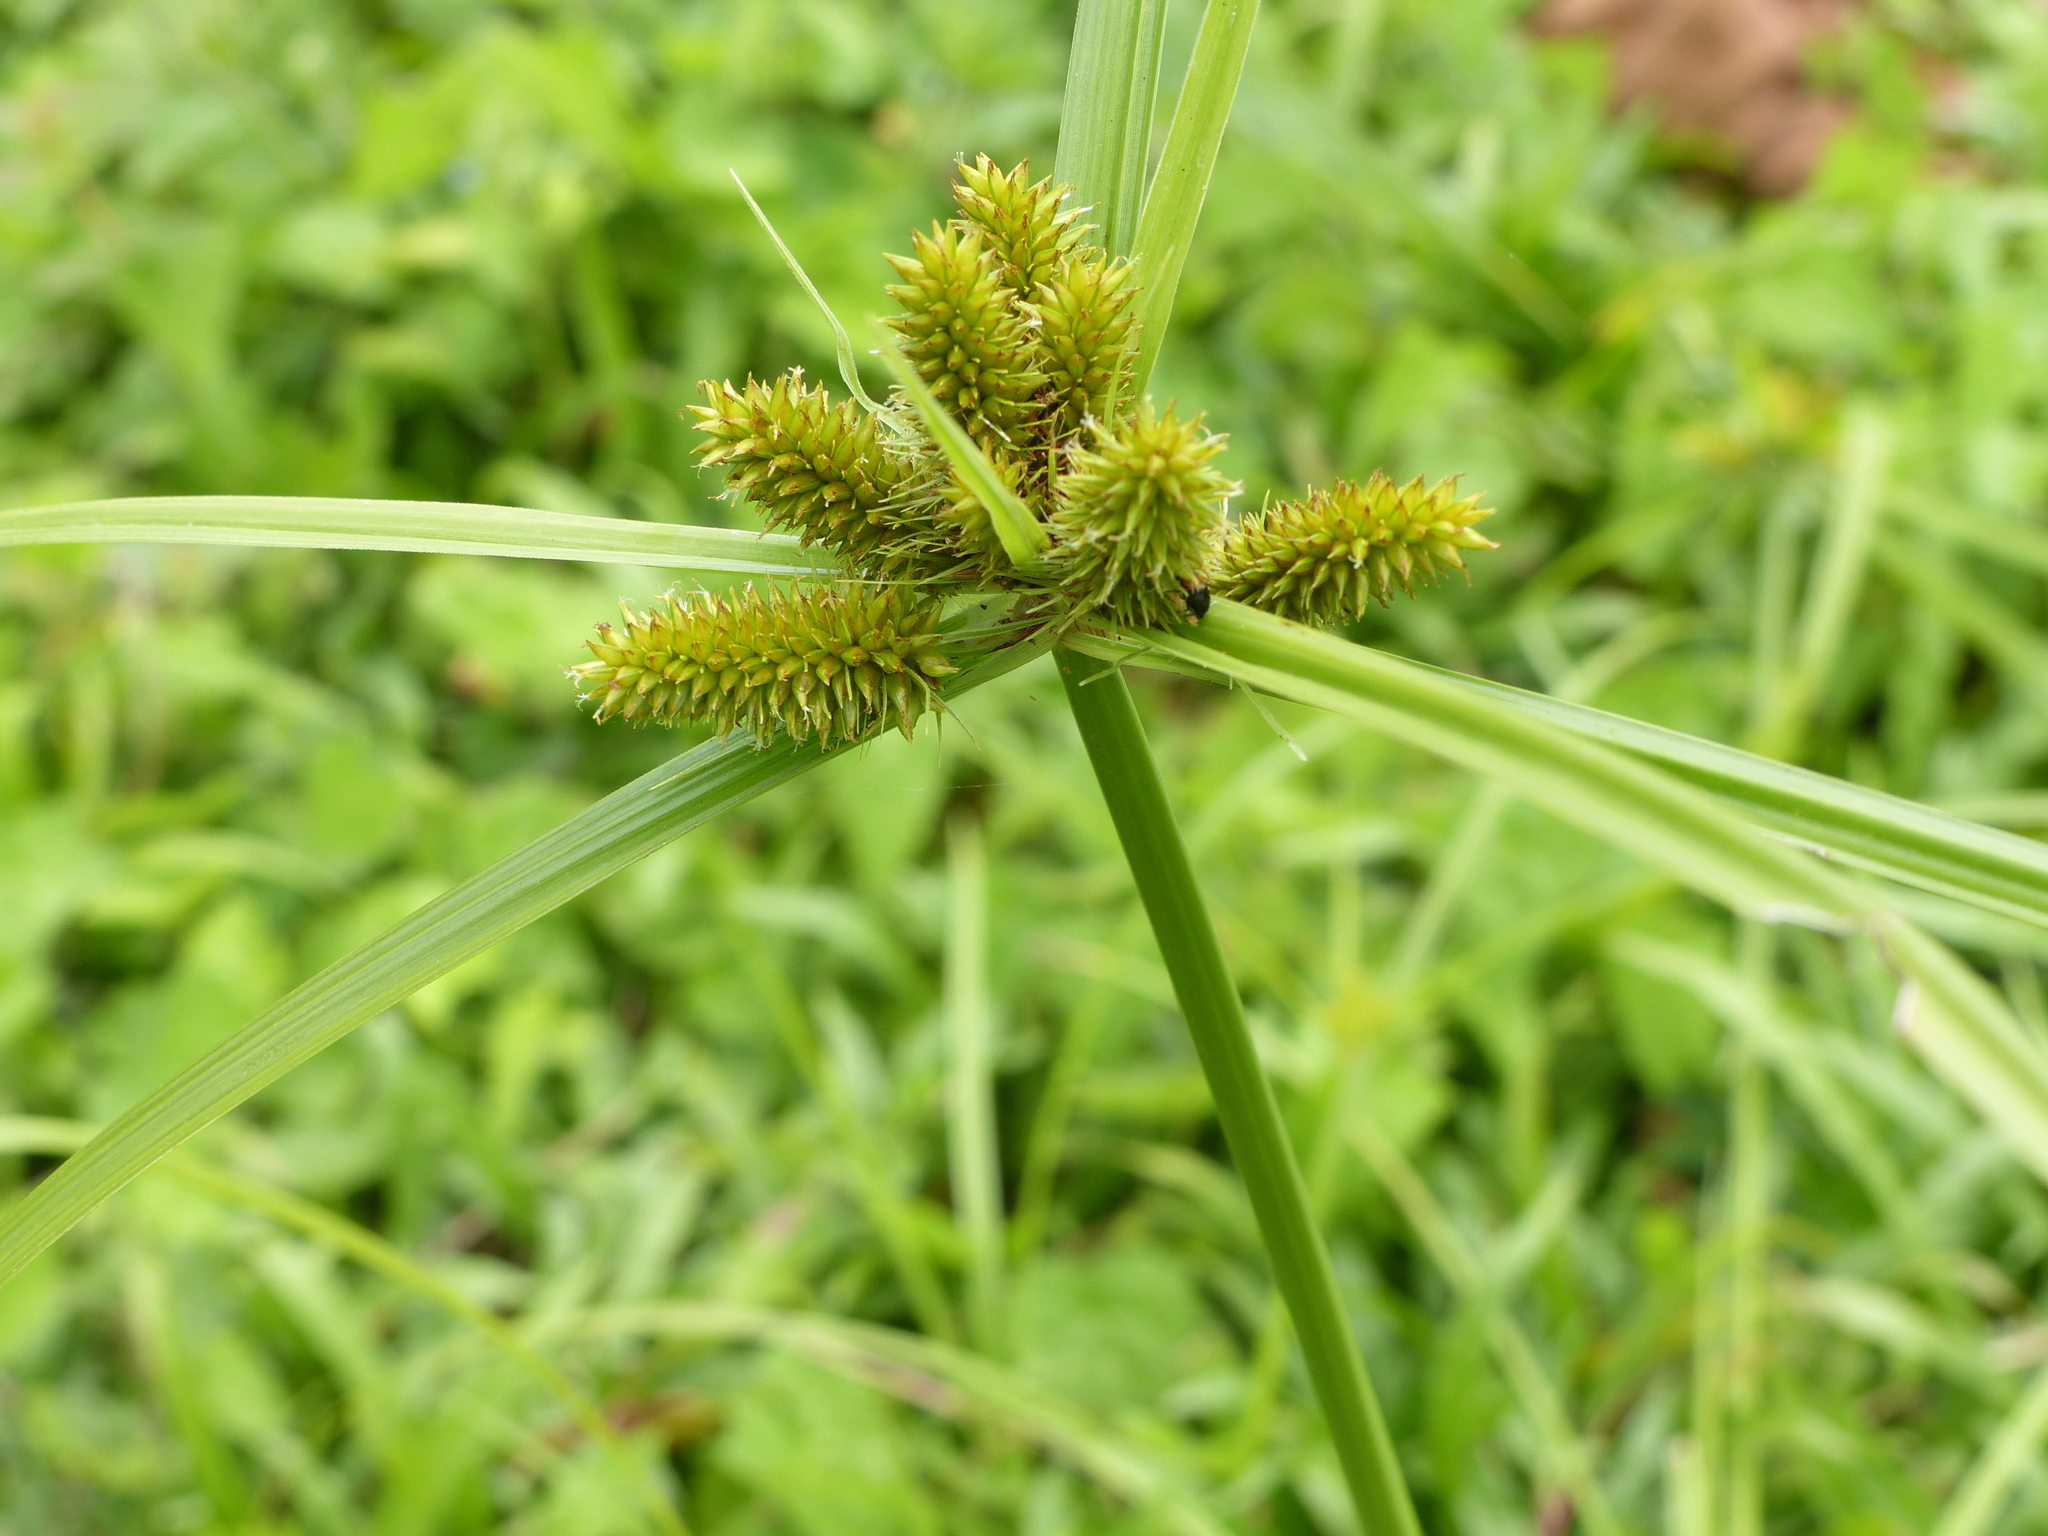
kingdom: Plantae
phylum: Tracheophyta
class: Liliopsida
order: Poales
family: Cyperaceae
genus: Cyperus
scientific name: Cyperus cyperoides
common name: Pacific island flat sedge
